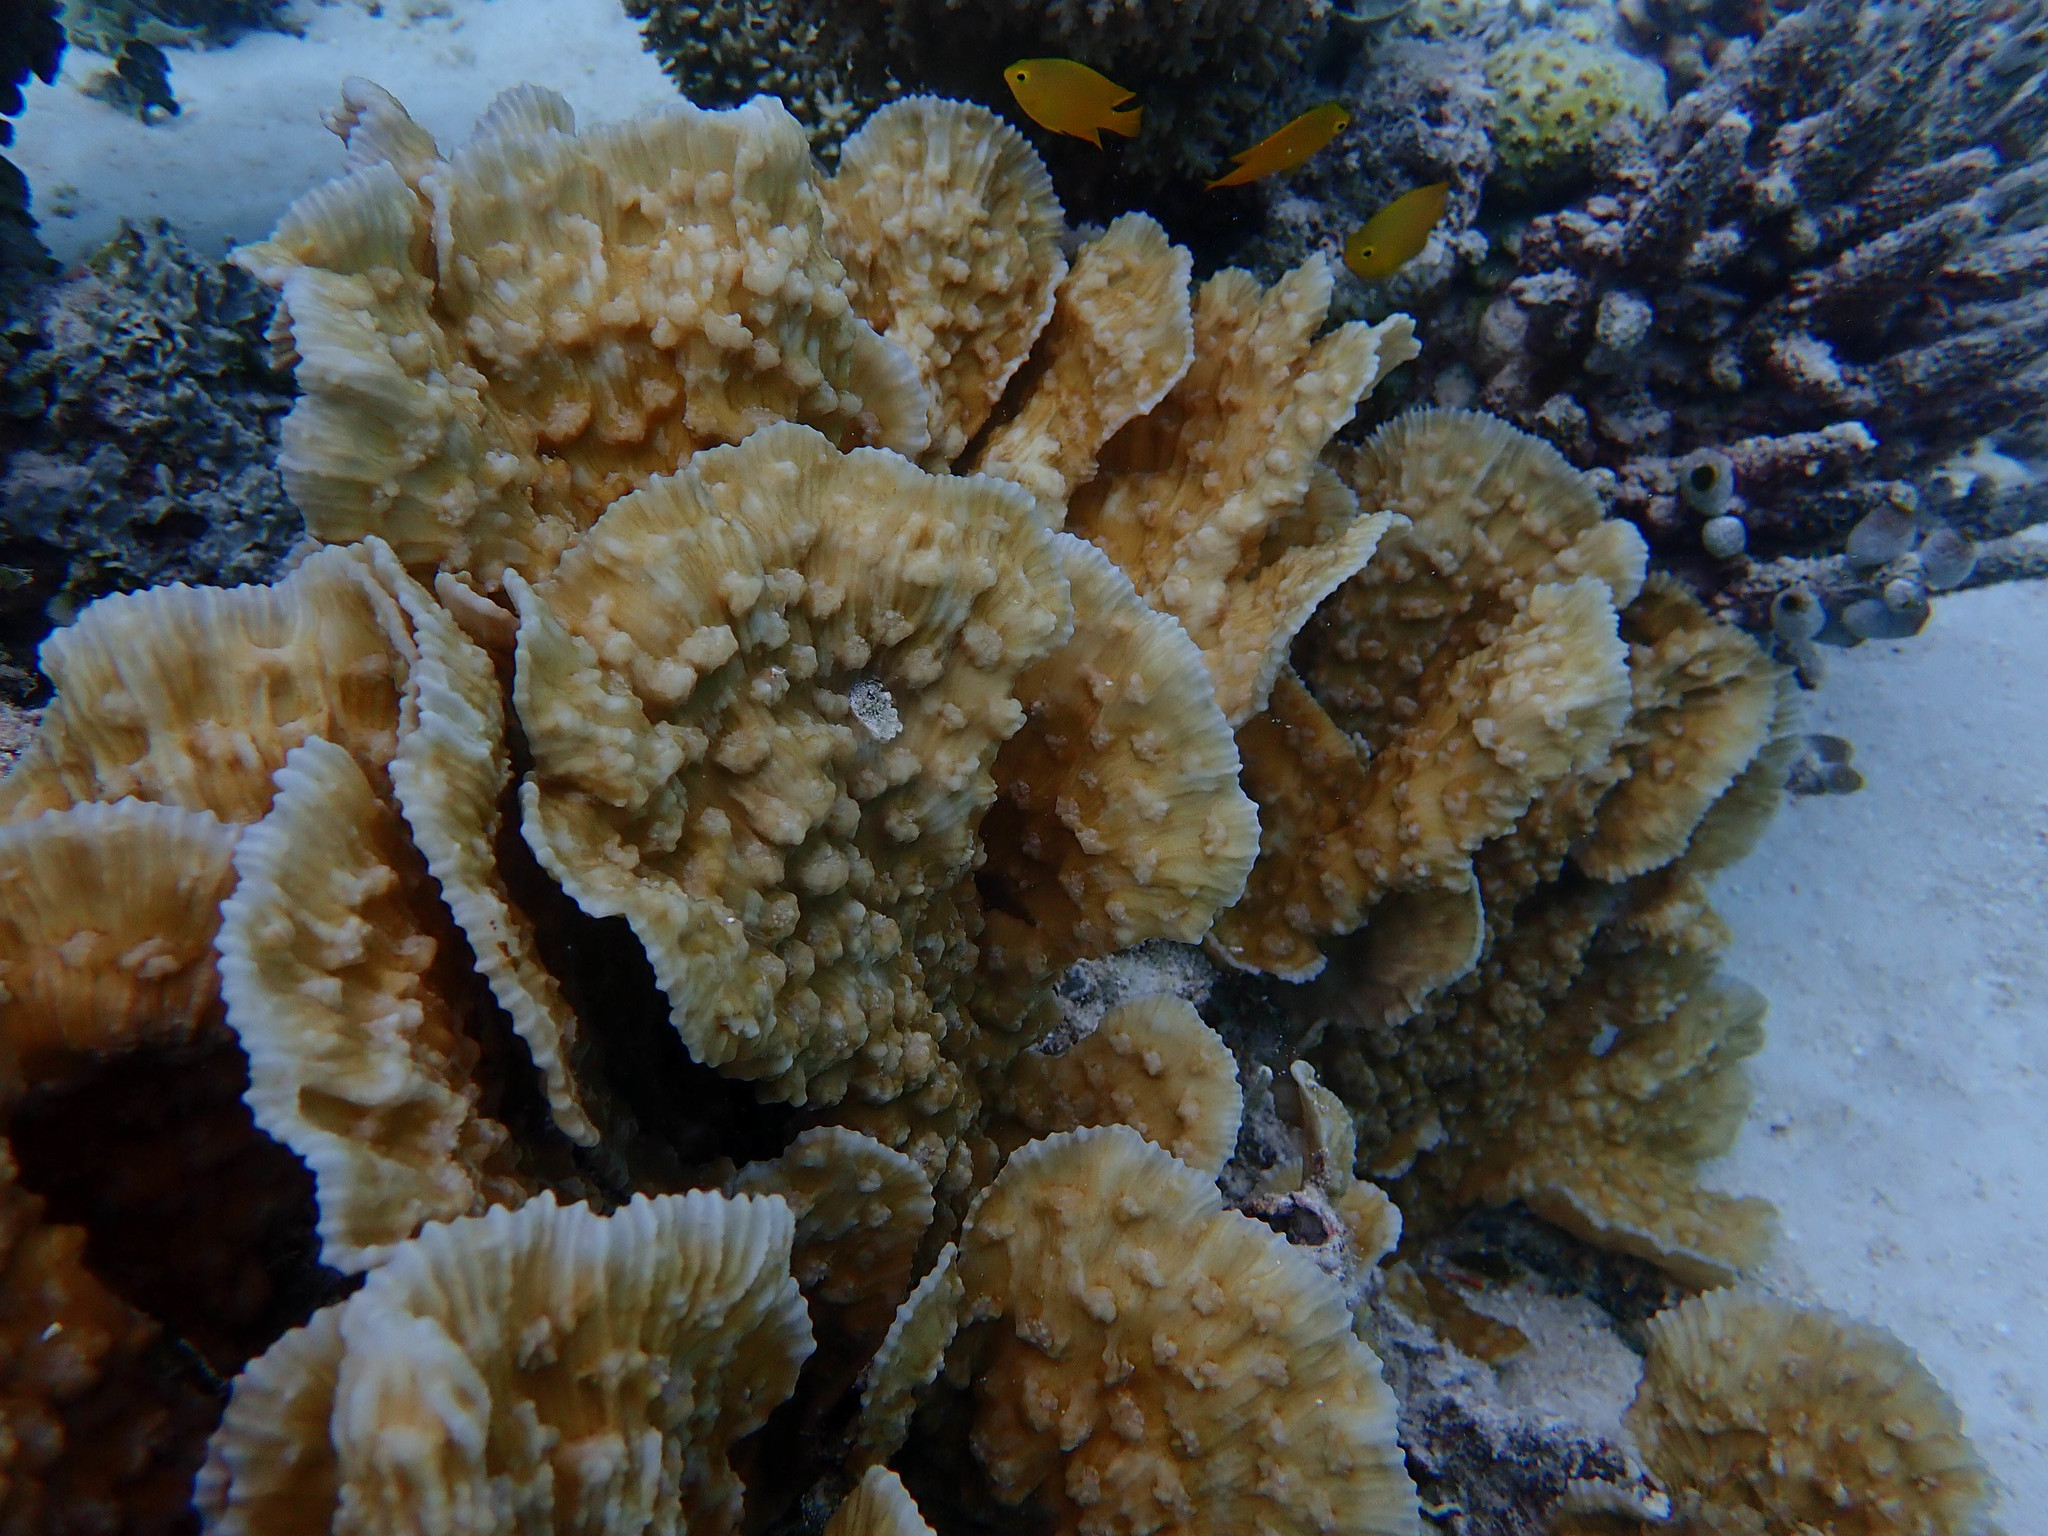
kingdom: Animalia
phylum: Cnidaria
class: Anthozoa
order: Scleractinia
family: Lobophylliidae
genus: Oxypora
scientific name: Oxypora crassispinosa
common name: Porous lettuce coral
